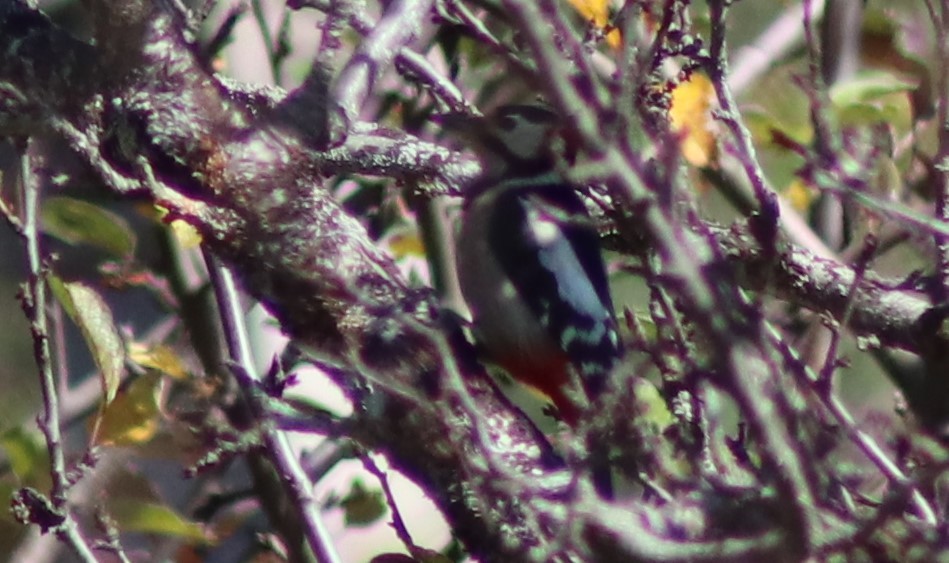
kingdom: Animalia
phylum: Chordata
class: Aves
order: Piciformes
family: Picidae
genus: Dendrocopos
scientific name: Dendrocopos major
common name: Great spotted woodpecker
